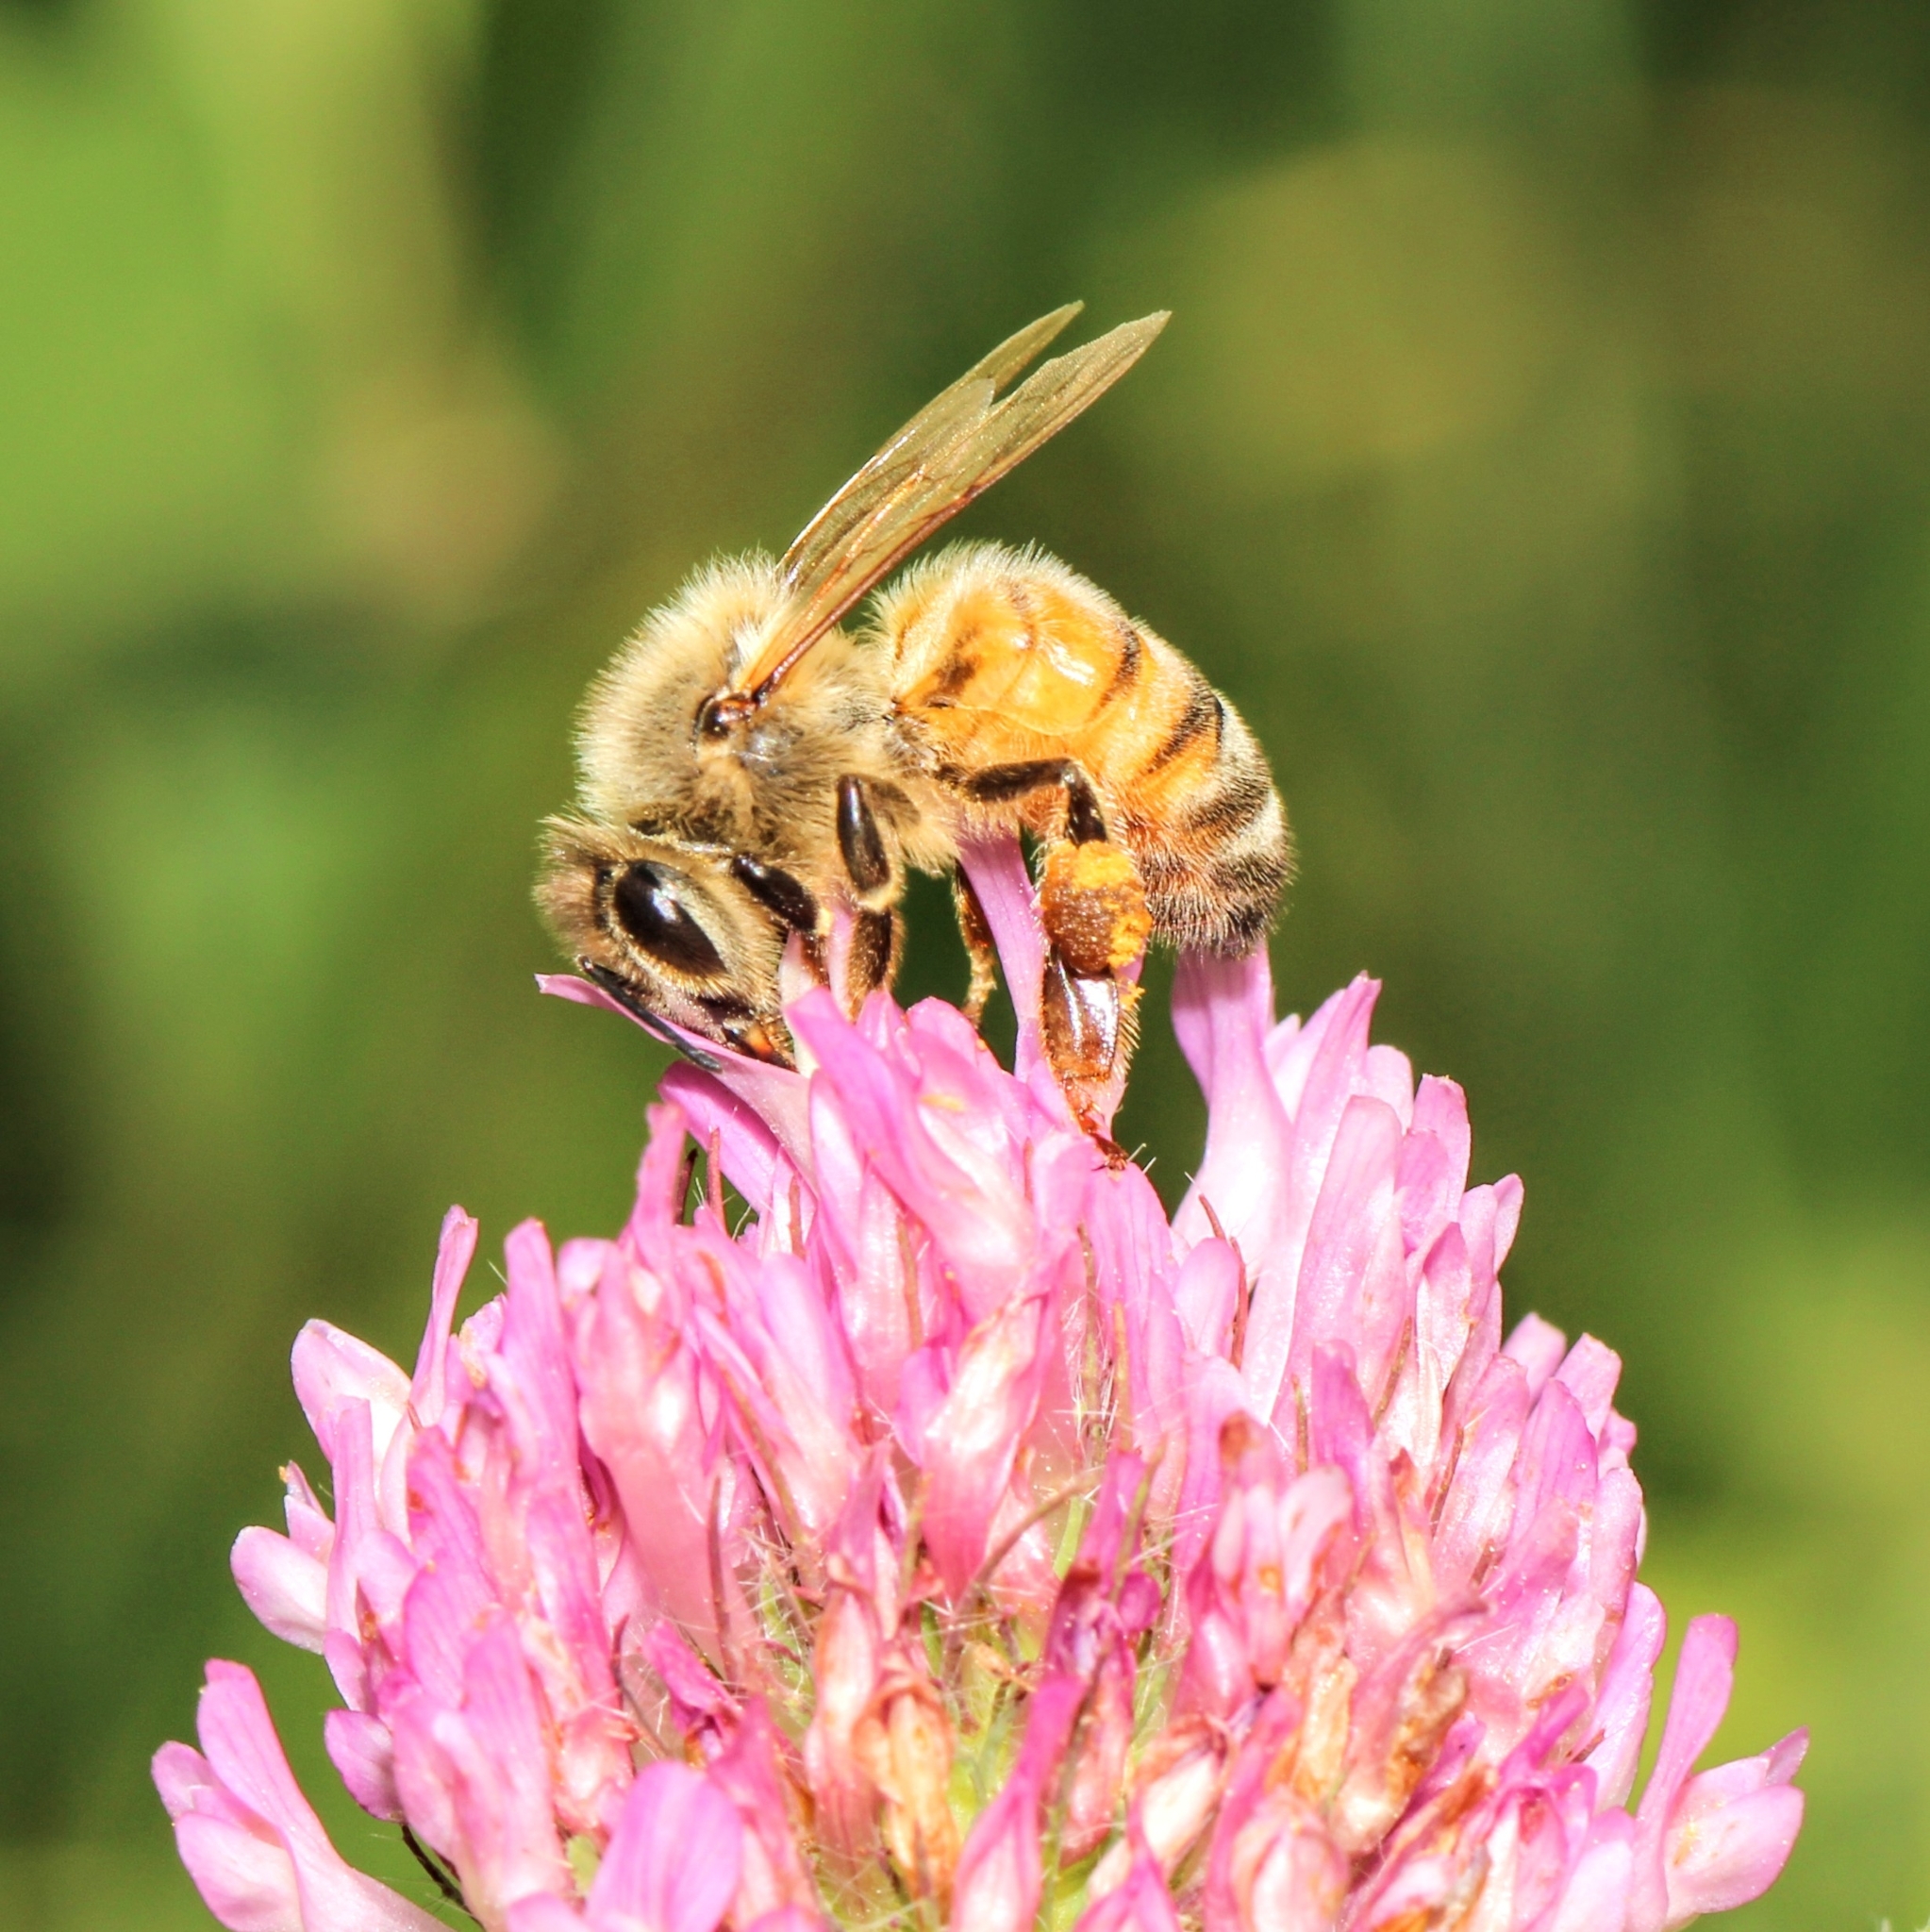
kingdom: Animalia
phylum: Arthropoda
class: Insecta
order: Hymenoptera
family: Apidae
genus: Apis
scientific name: Apis mellifera
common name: Honey bee
